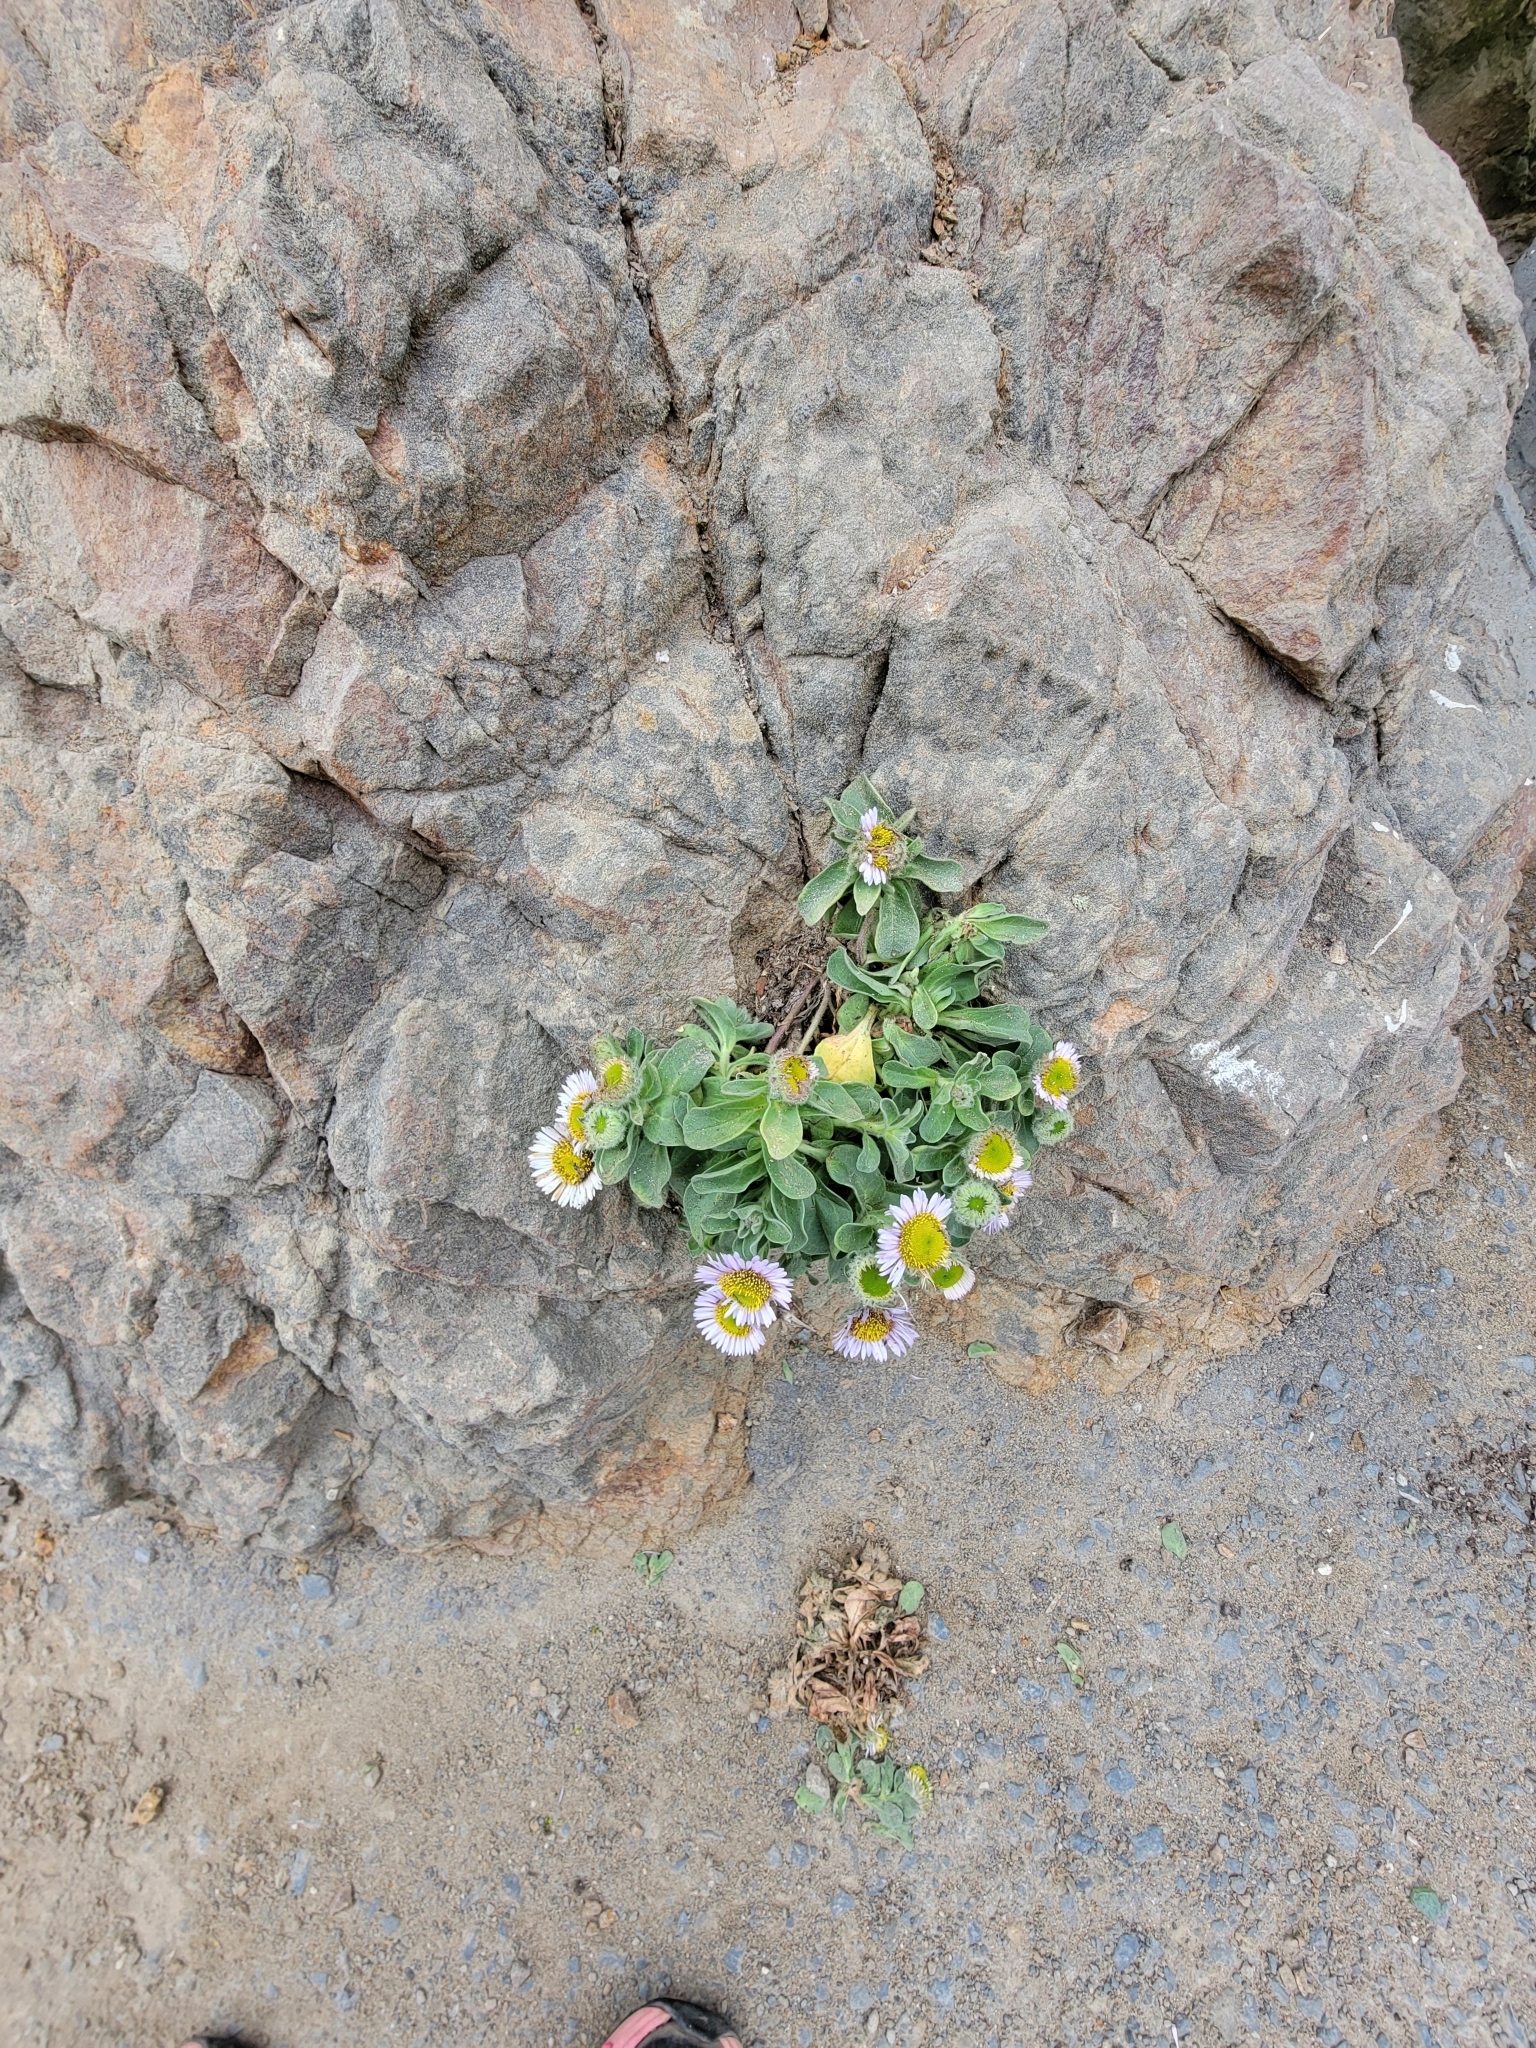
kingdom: Plantae
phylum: Tracheophyta
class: Magnoliopsida
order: Asterales
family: Asteraceae
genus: Erigeron
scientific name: Erigeron glaucus
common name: Seaside daisy
